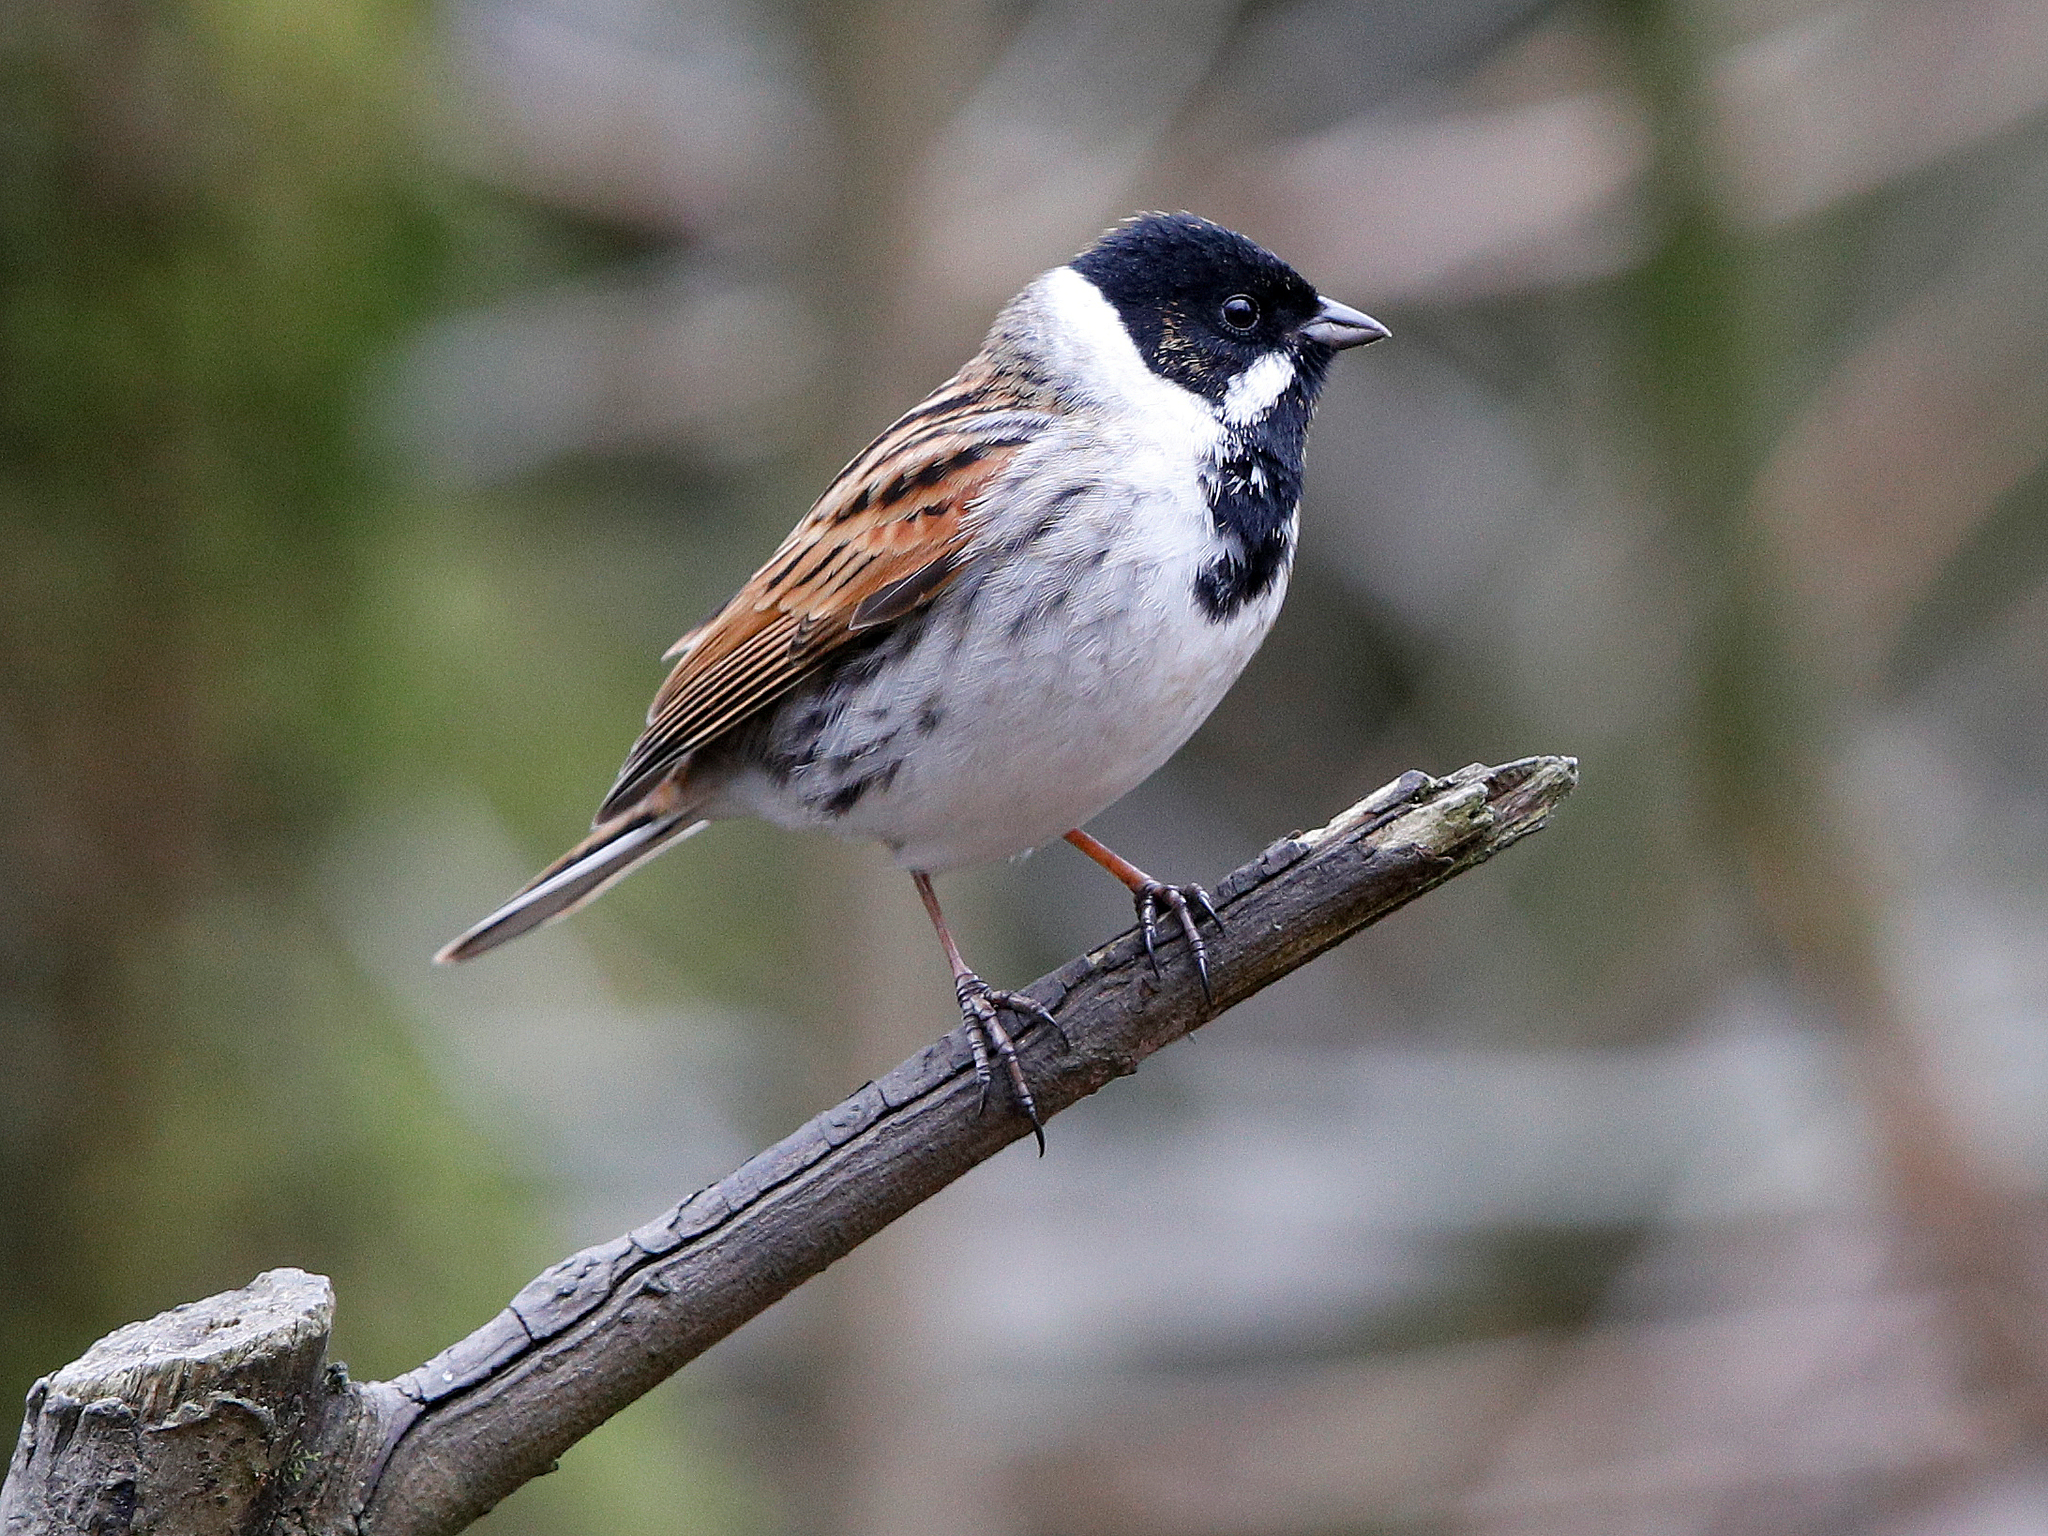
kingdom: Animalia
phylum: Chordata
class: Aves
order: Passeriformes
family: Emberizidae
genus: Emberiza
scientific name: Emberiza schoeniclus
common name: Reed bunting
